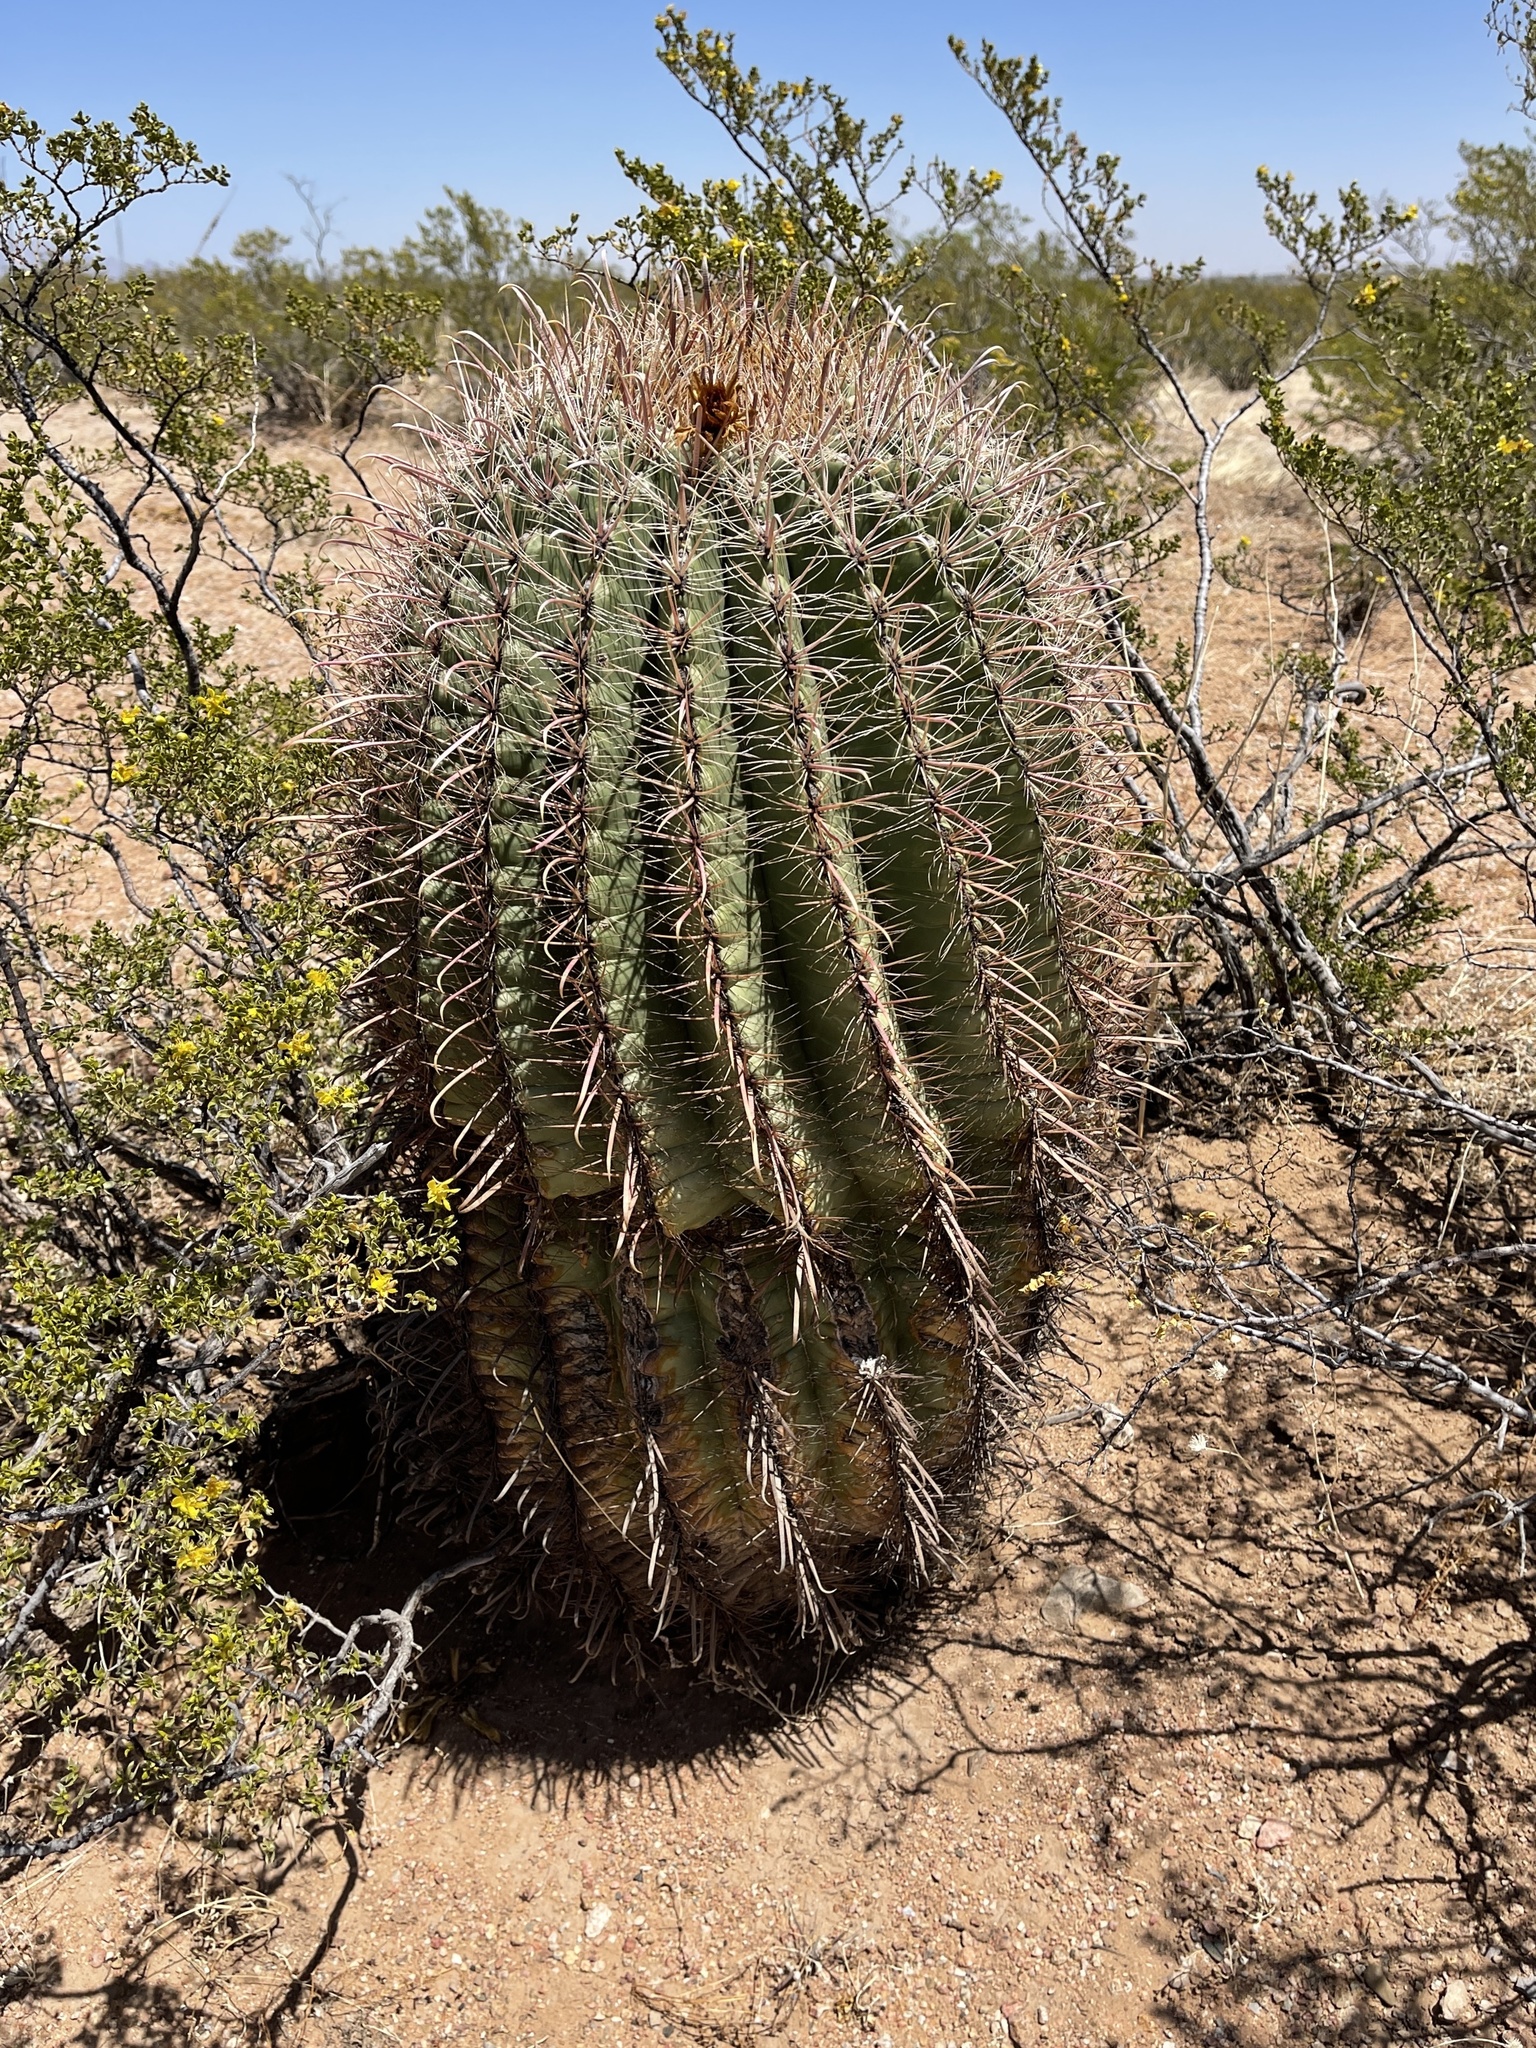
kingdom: Plantae
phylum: Tracheophyta
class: Magnoliopsida
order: Caryophyllales
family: Cactaceae
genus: Ferocactus
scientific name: Ferocactus wislizeni
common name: Candy barrel cactus
